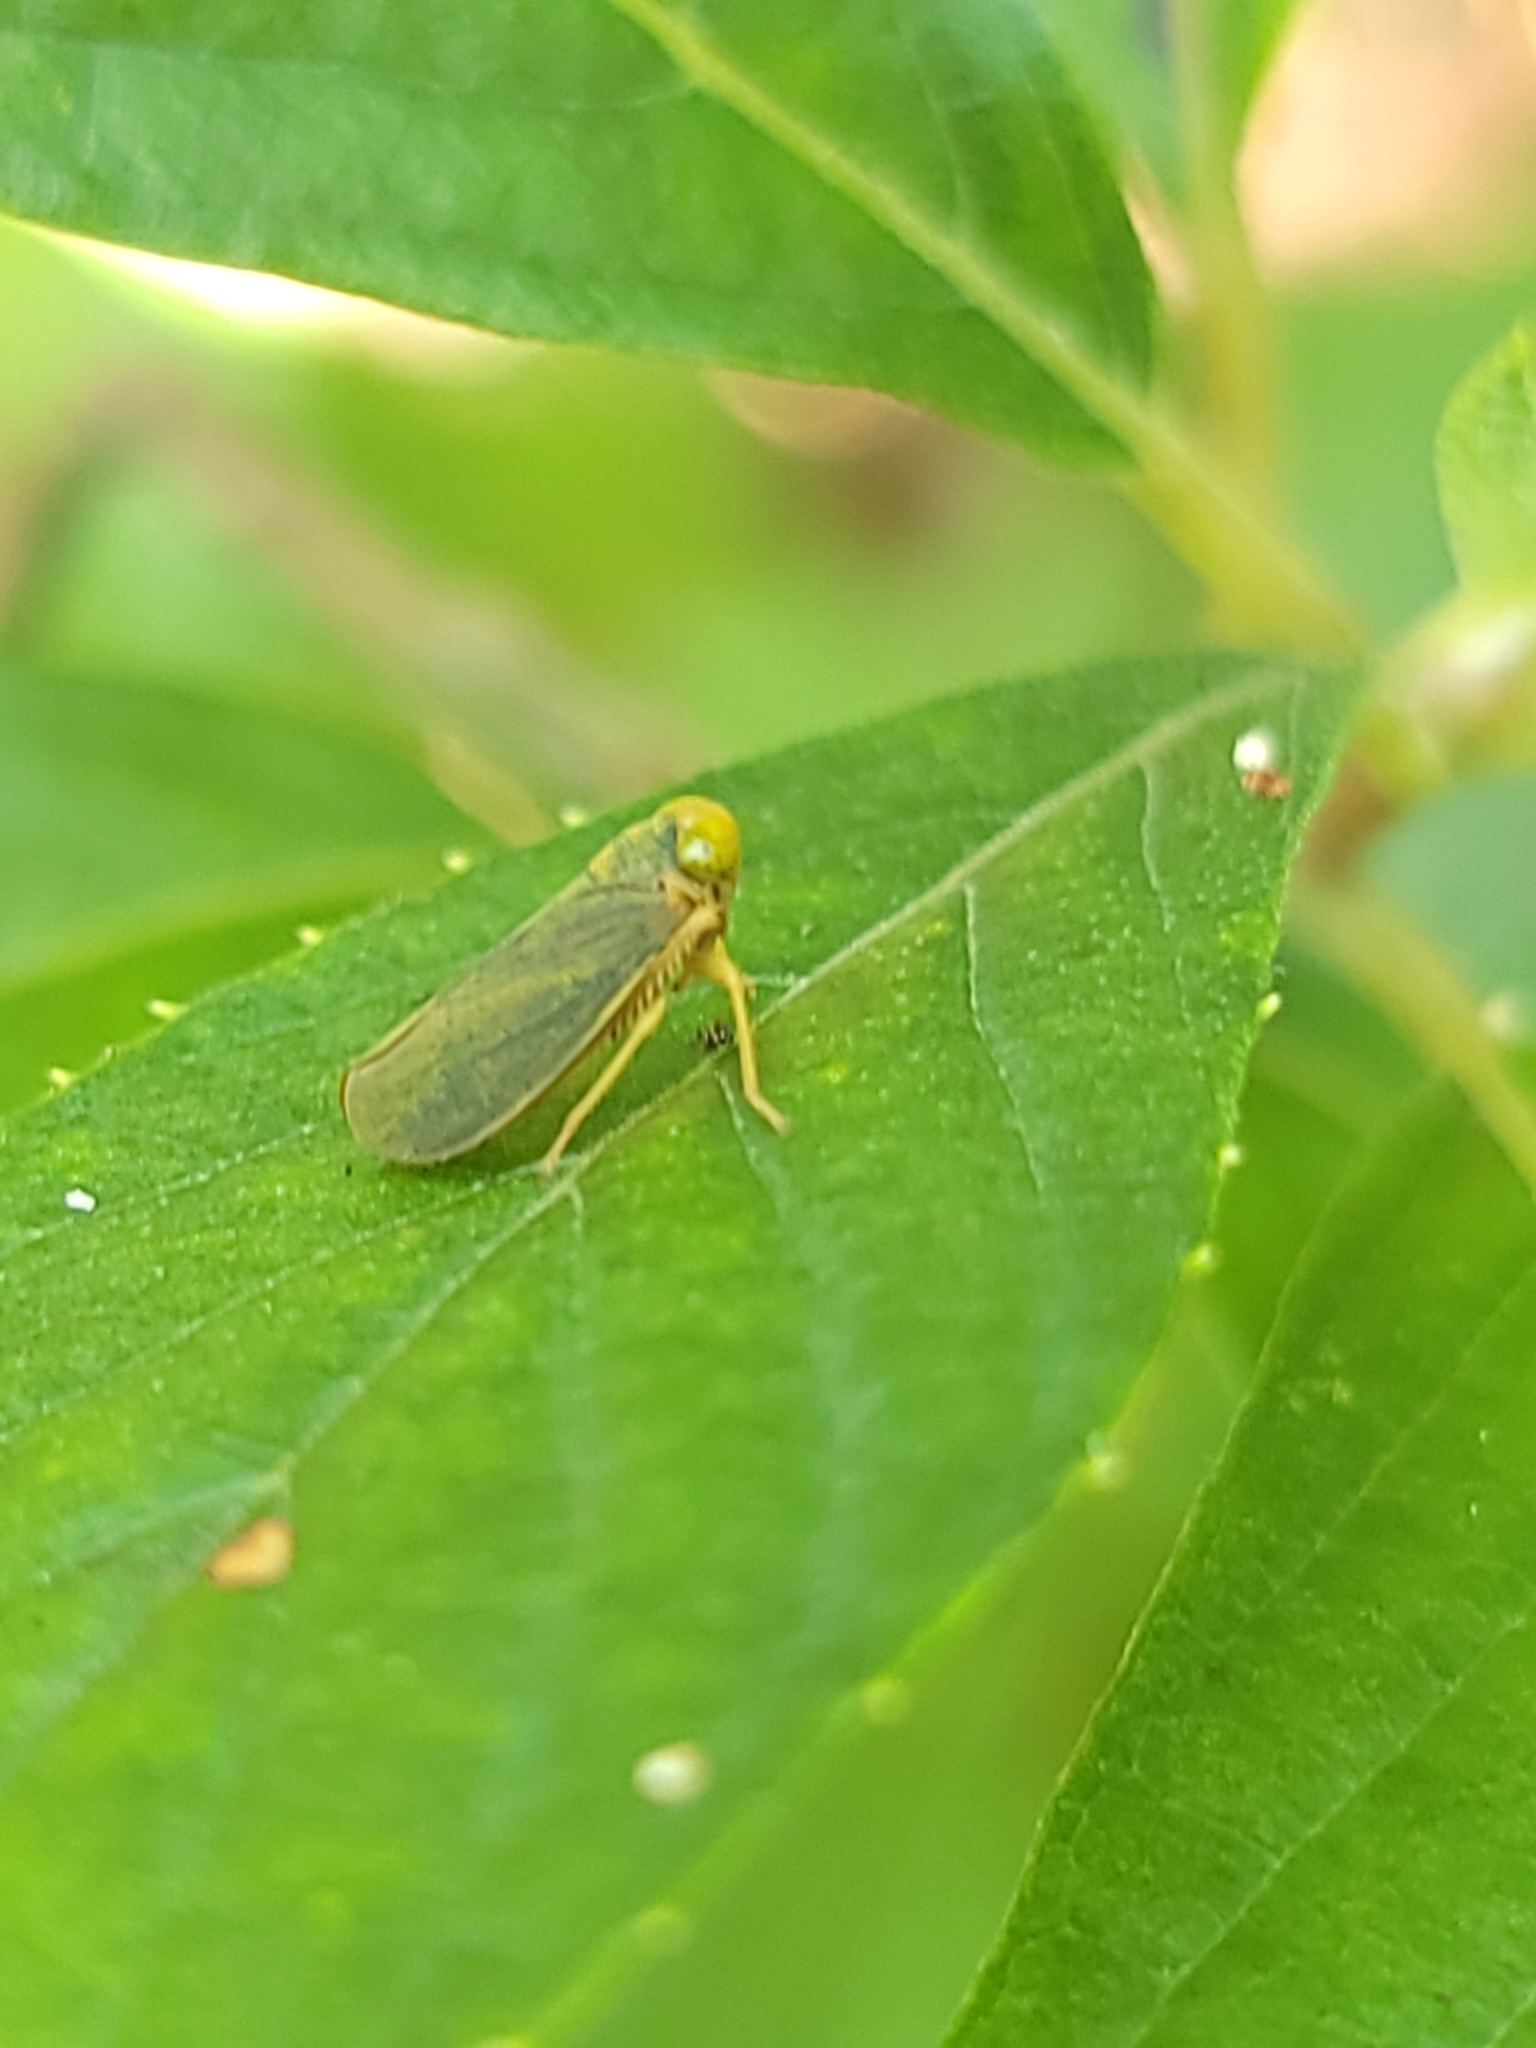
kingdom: Animalia
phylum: Arthropoda
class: Insecta
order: Hemiptera
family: Cicadellidae
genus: Jikradia
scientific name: Jikradia olitoria
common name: Coppery leafhopper
